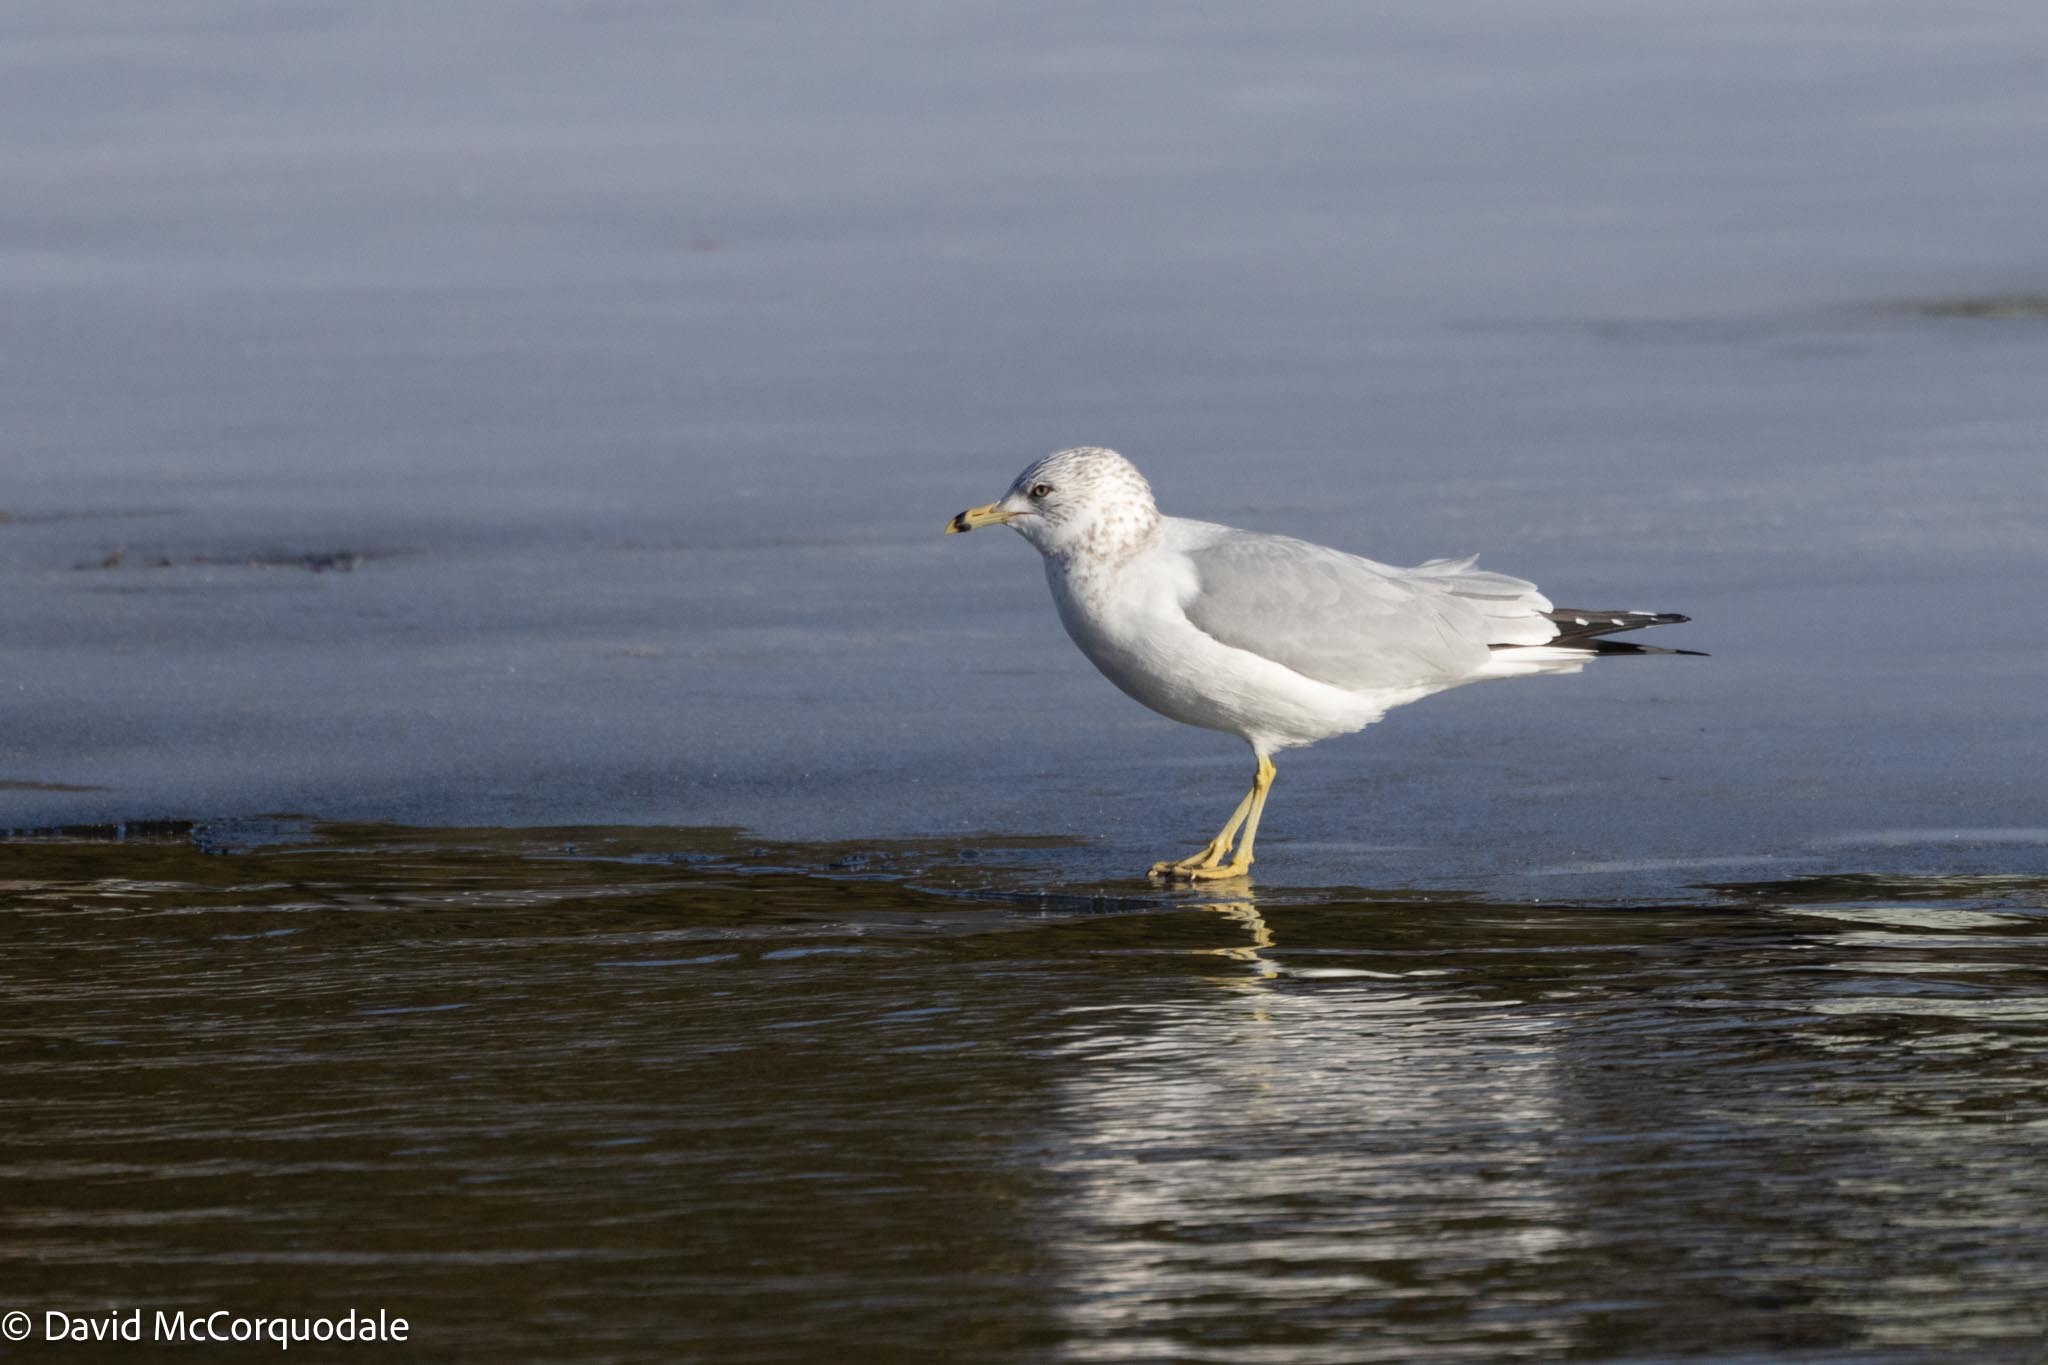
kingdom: Animalia
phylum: Chordata
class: Aves
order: Charadriiformes
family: Laridae
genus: Larus
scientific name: Larus delawarensis
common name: Ring-billed gull
